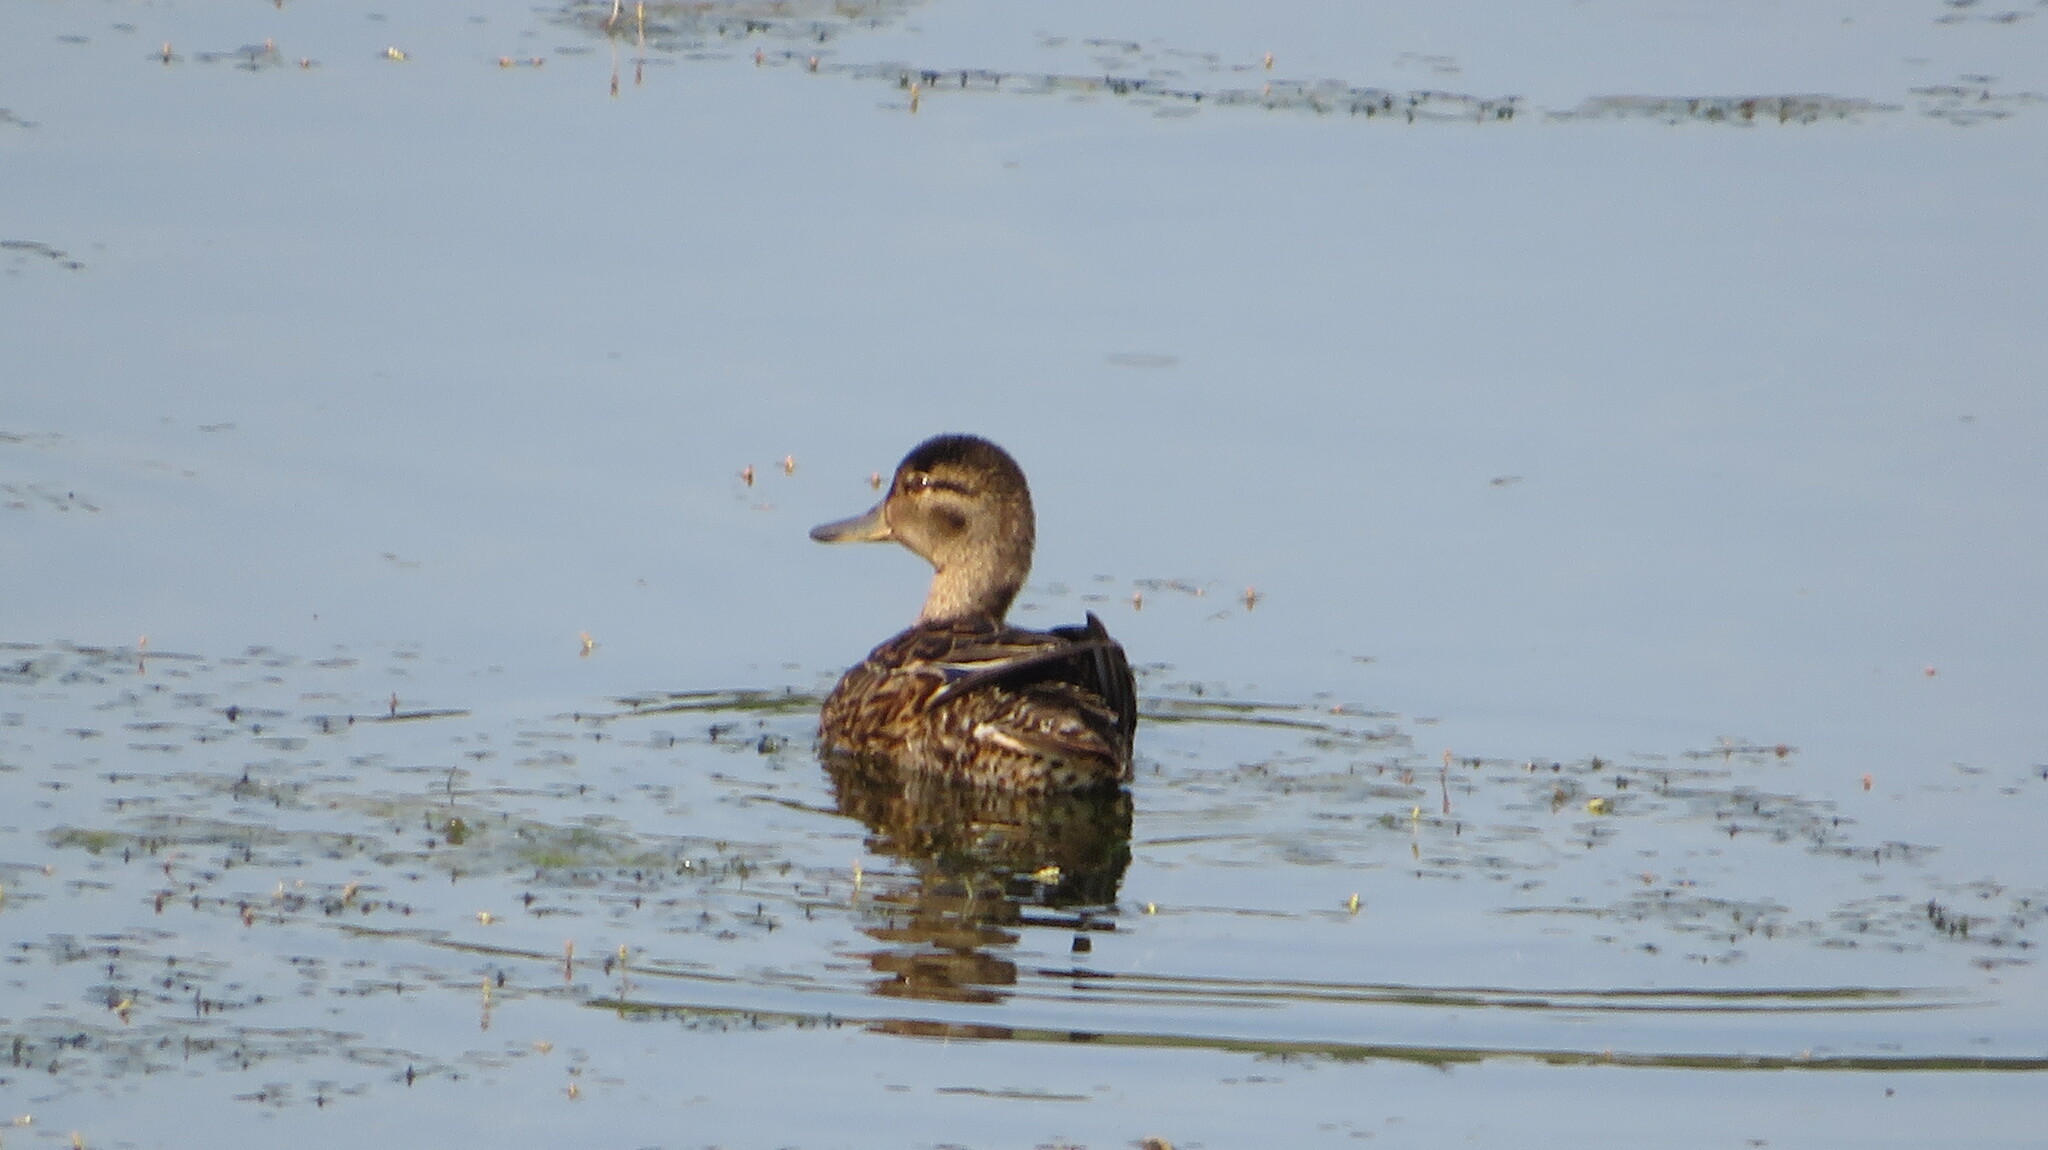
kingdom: Animalia
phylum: Chordata
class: Aves
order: Anseriformes
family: Anatidae
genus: Anas
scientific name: Anas crecca
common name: Eurasian teal
